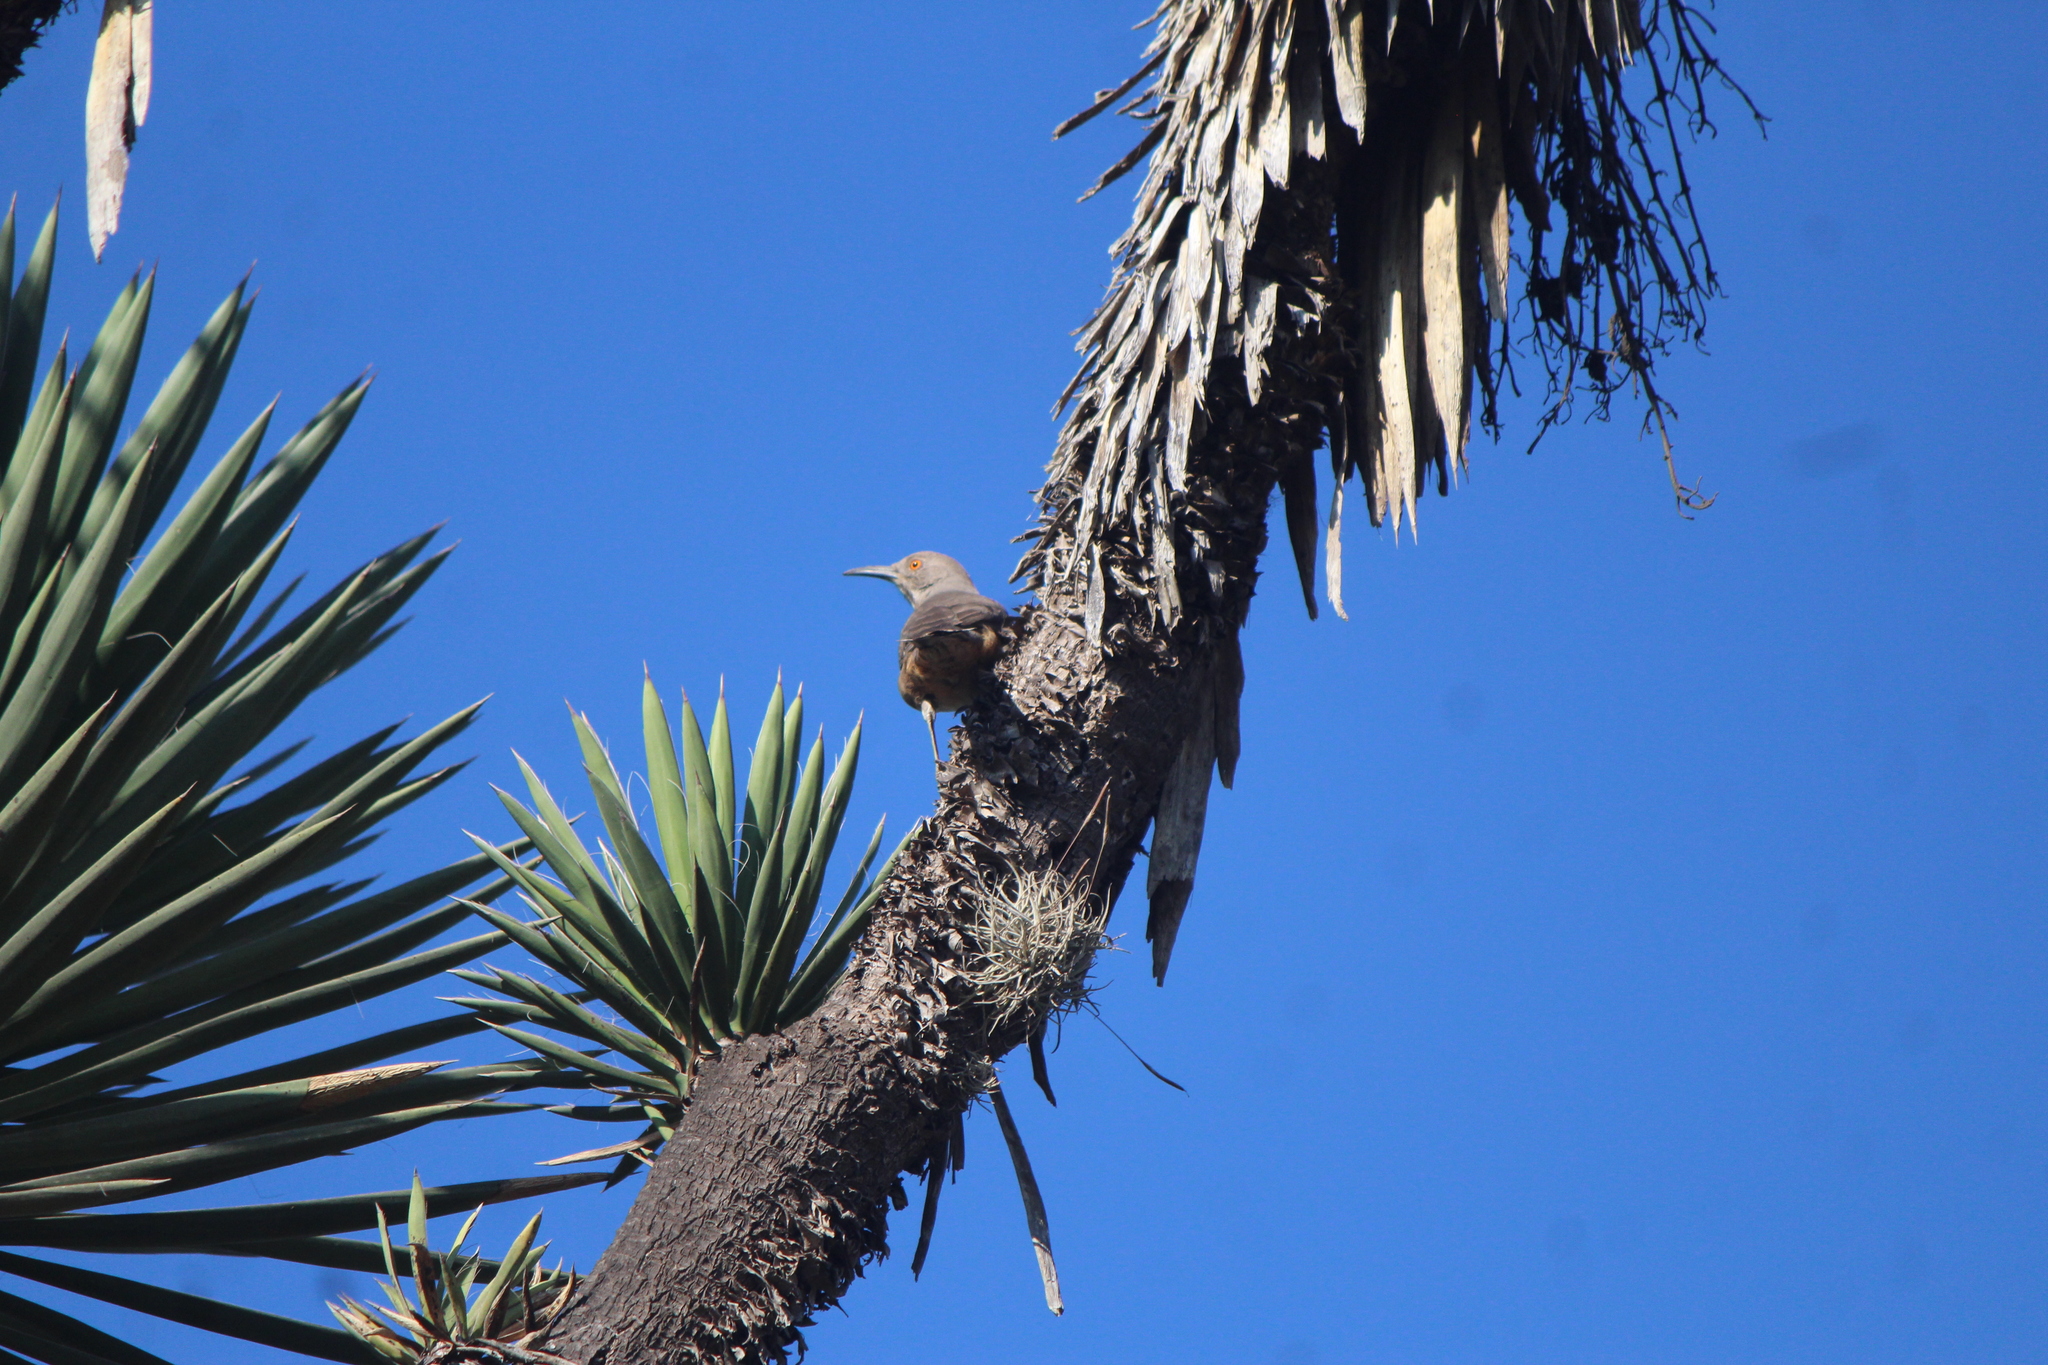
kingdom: Animalia
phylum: Chordata
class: Aves
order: Passeriformes
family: Mimidae
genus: Toxostoma
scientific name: Toxostoma curvirostre
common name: Curve-billed thrasher
